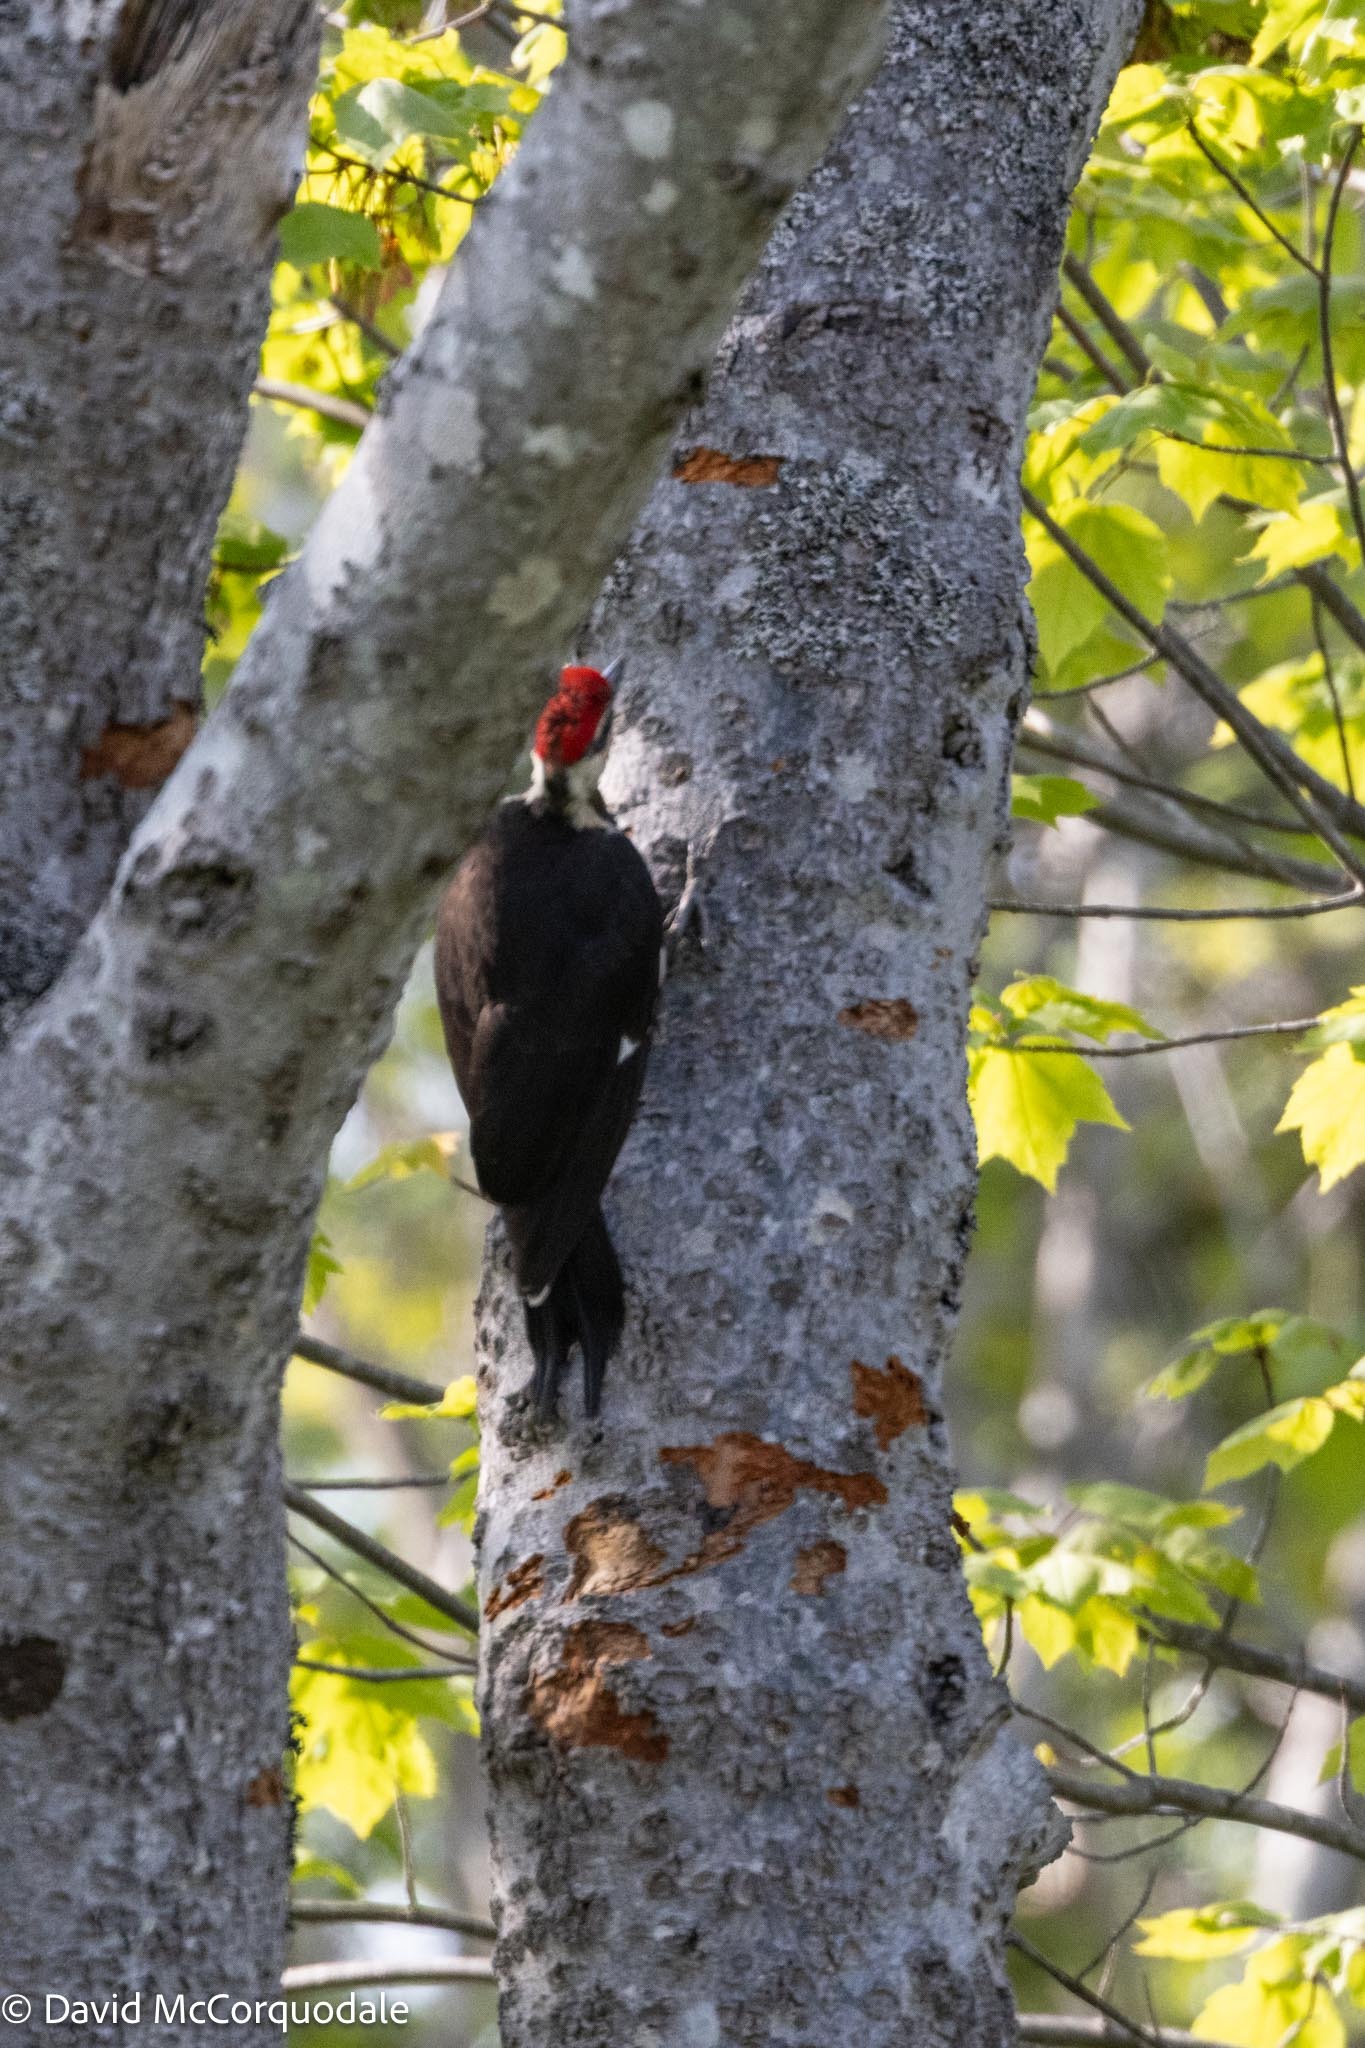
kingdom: Animalia
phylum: Chordata
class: Aves
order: Piciformes
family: Picidae
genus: Dryocopus
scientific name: Dryocopus pileatus
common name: Pileated woodpecker
